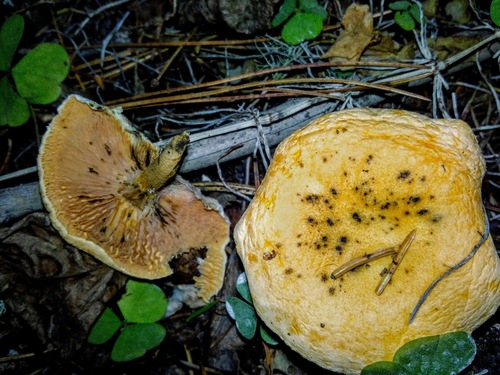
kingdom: Fungi
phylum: Basidiomycota
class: Agaricomycetes
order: Boletales
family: Hygrophoropsidaceae
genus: Hygrophoropsis
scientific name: Hygrophoropsis aurantiaca
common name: False chanterelle
